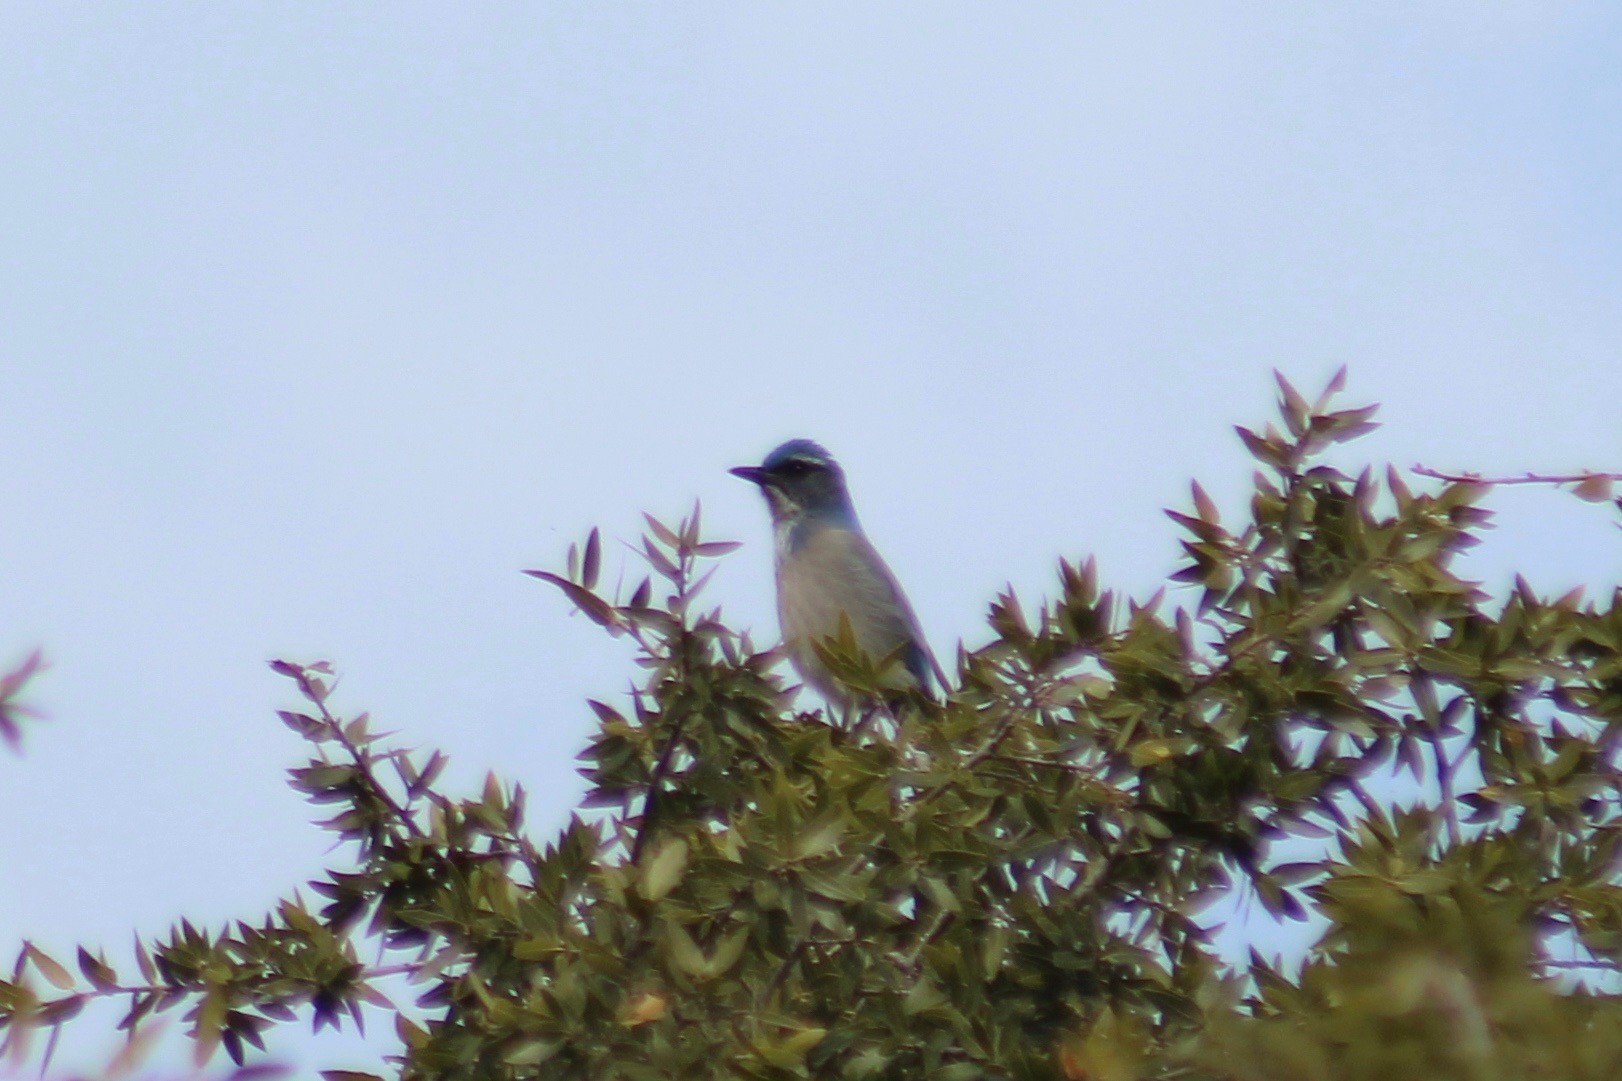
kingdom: Animalia
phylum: Chordata
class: Aves
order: Passeriformes
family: Corvidae
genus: Aphelocoma
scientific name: Aphelocoma woodhouseii
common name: Woodhouse's scrub-jay
